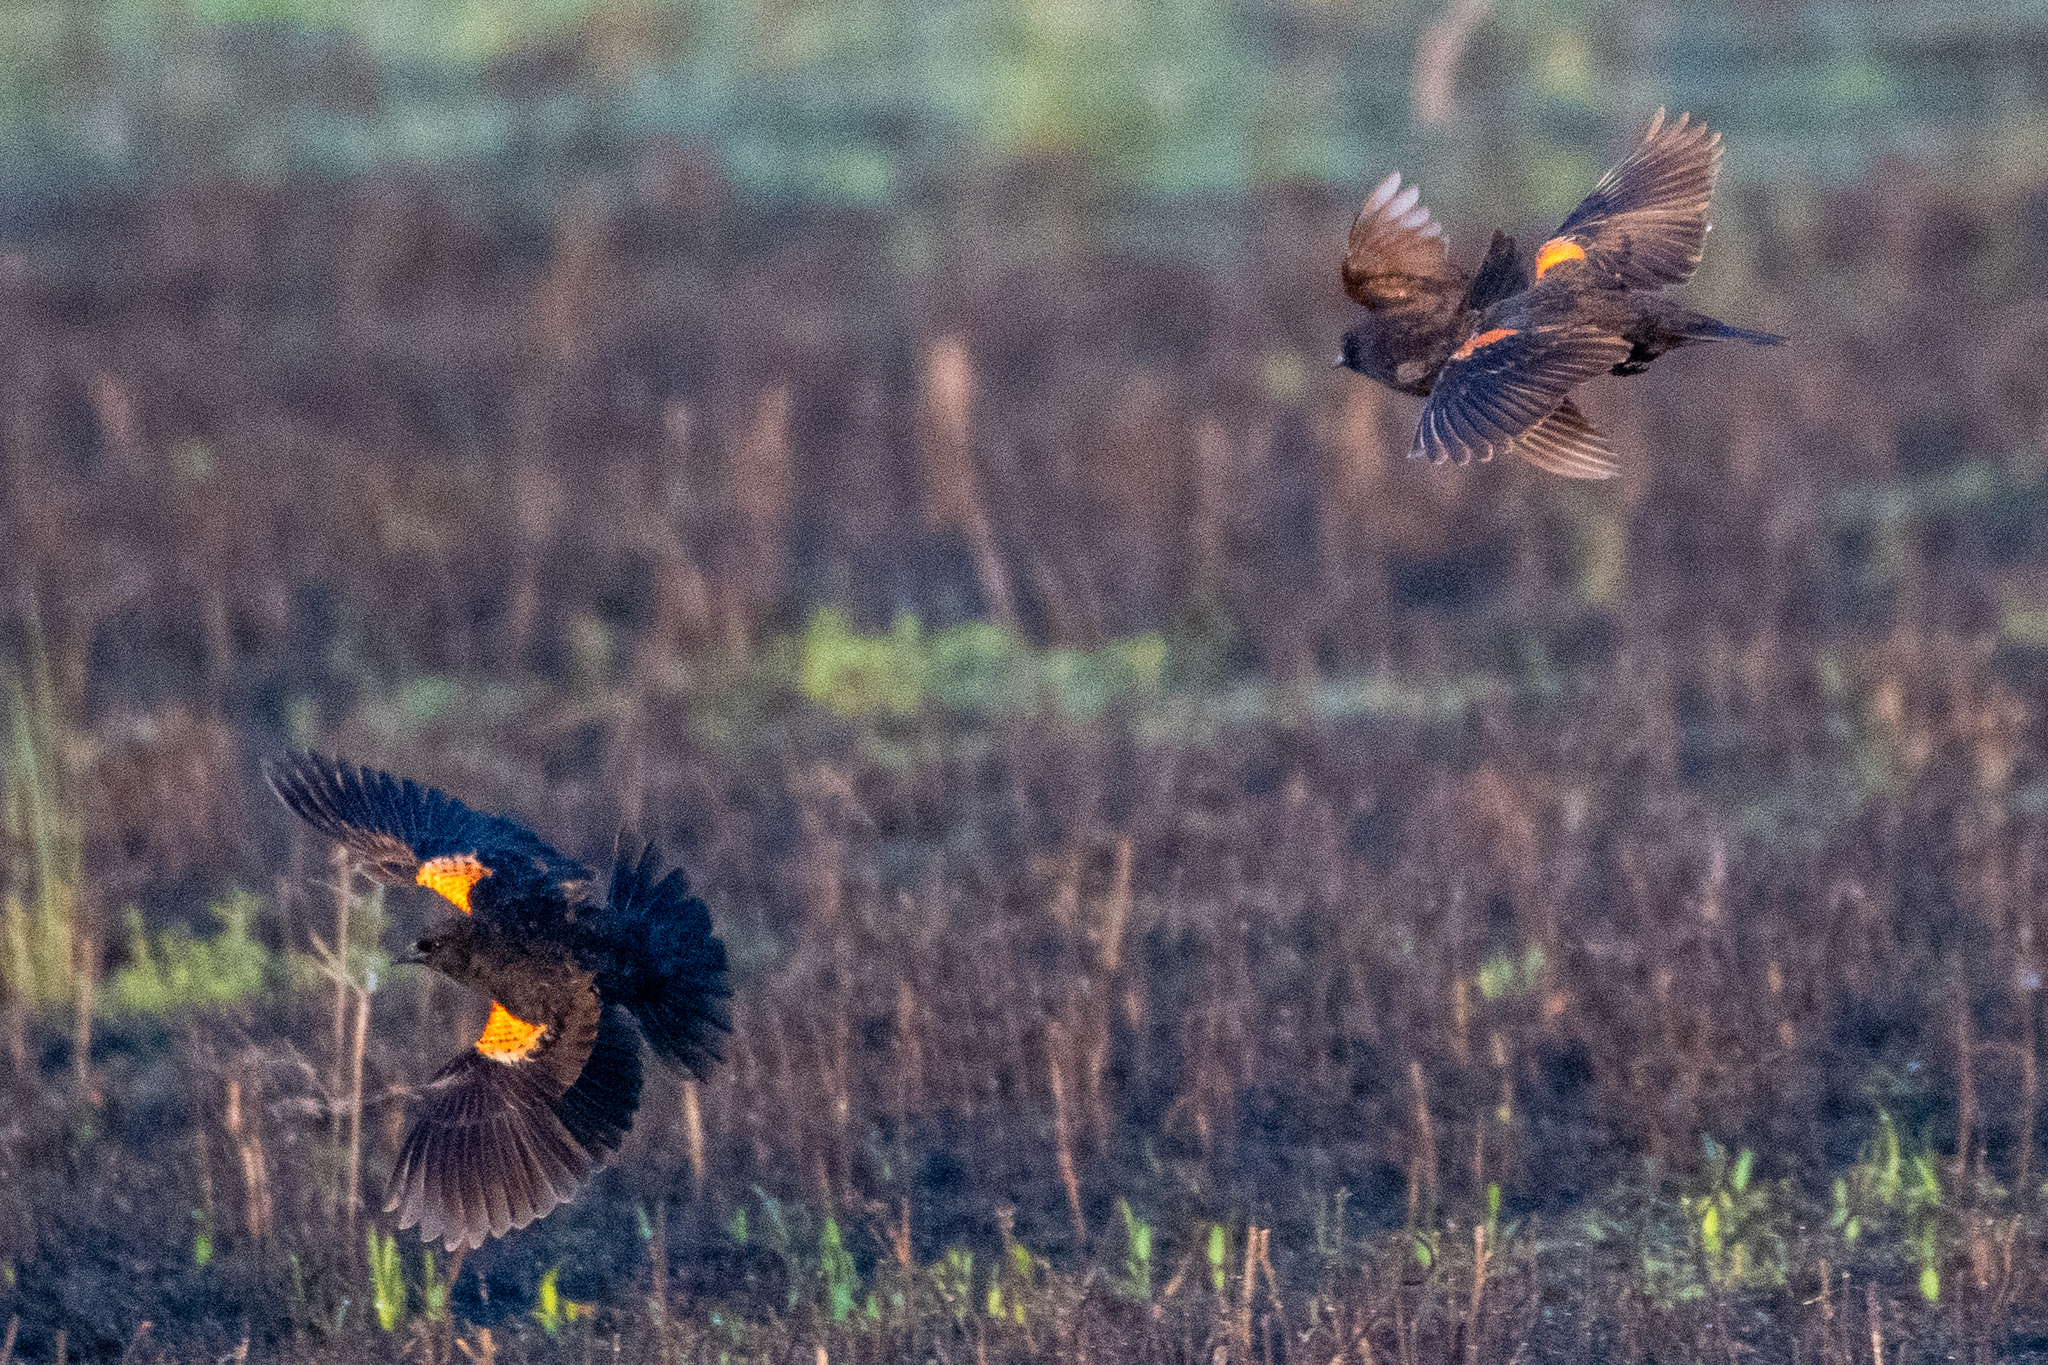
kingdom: Animalia
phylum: Chordata
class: Aves
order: Passeriformes
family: Icteridae
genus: Agelaius
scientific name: Agelaius phoeniceus
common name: Red-winged blackbird
